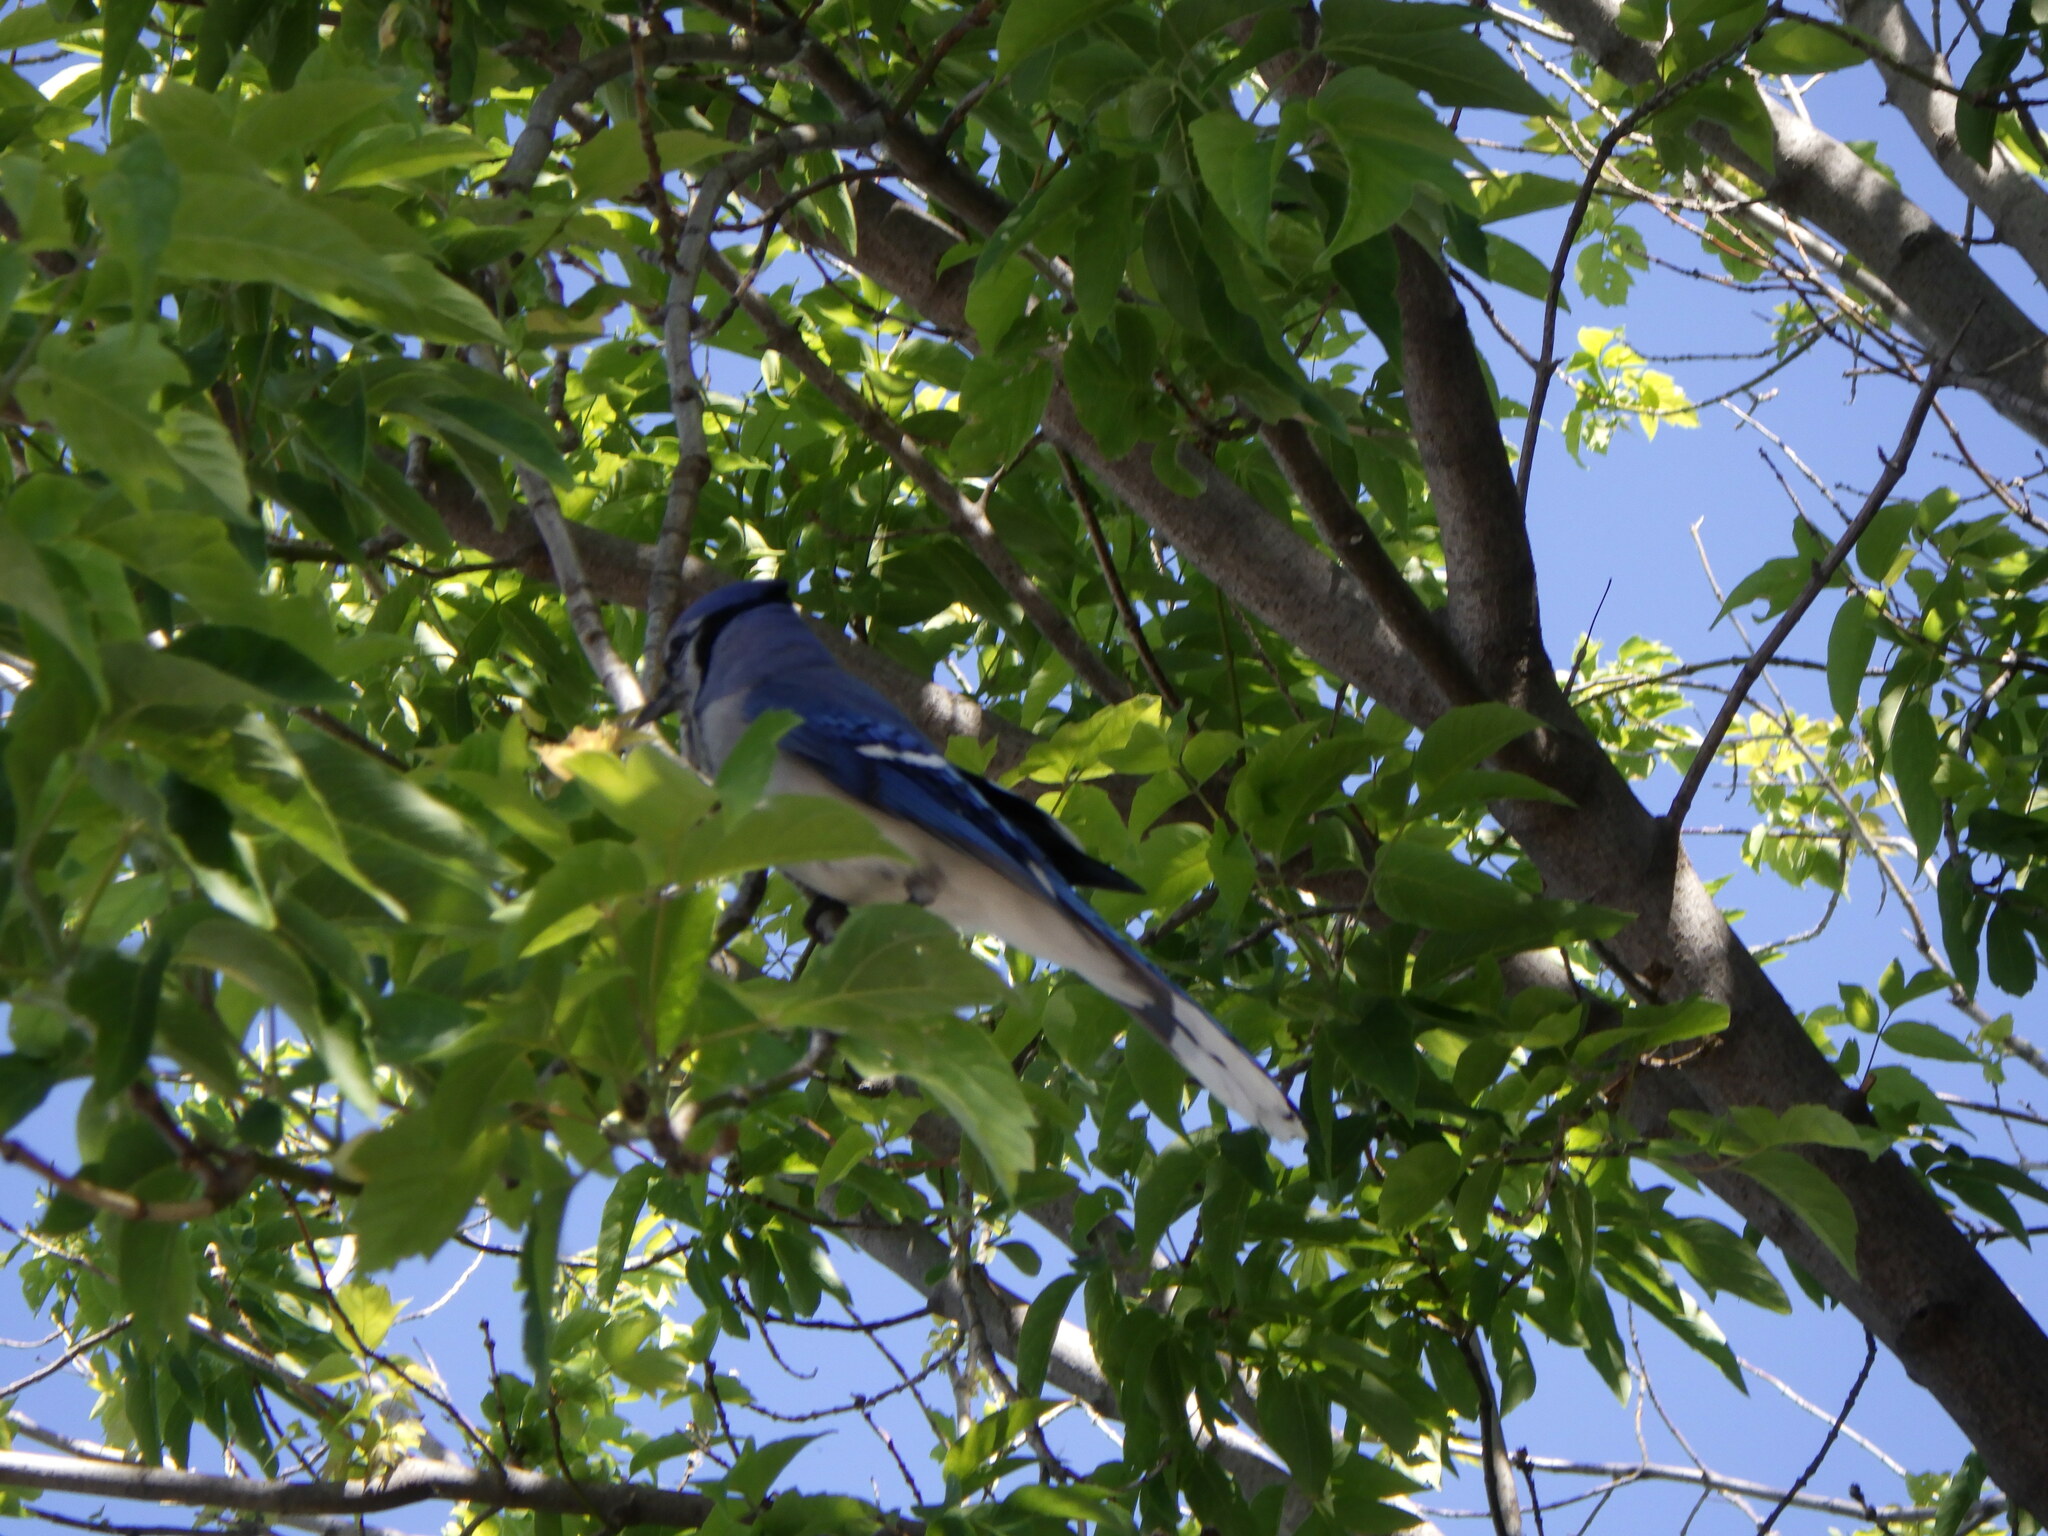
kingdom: Animalia
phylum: Chordata
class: Aves
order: Passeriformes
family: Corvidae
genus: Cyanocitta
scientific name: Cyanocitta cristata
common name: Blue jay
